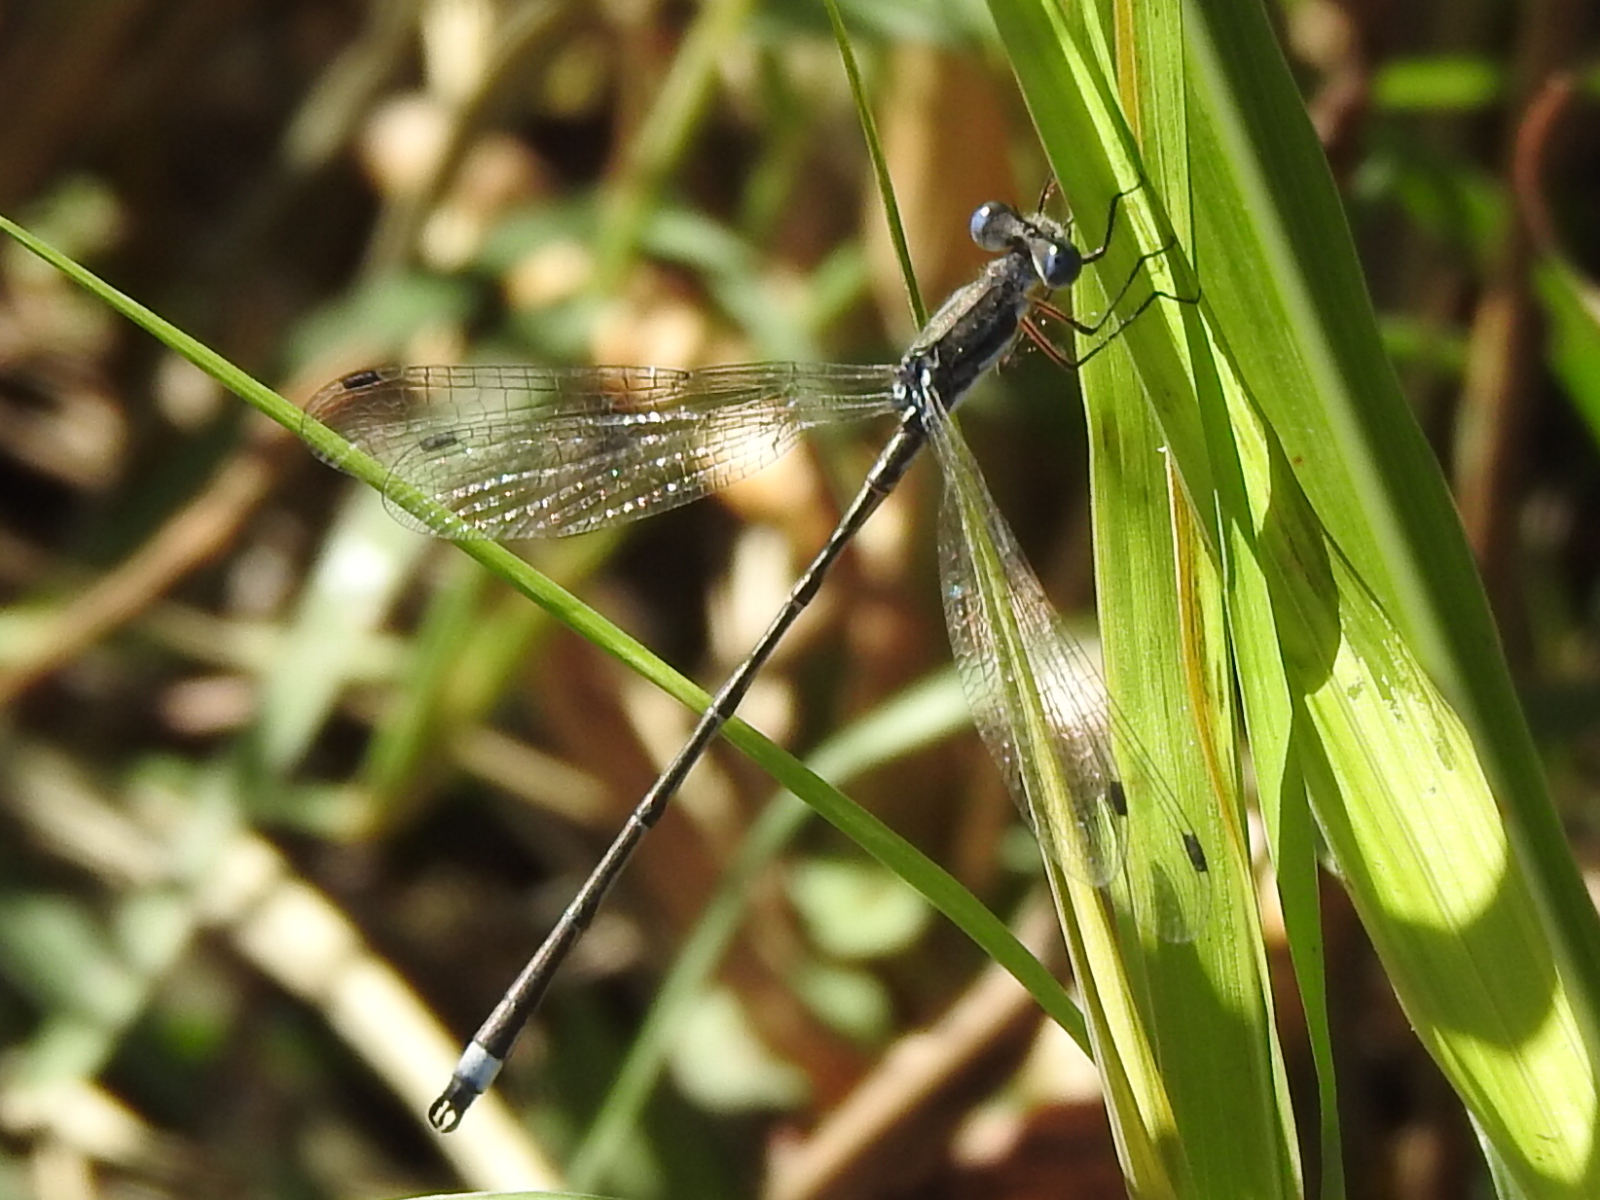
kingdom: Animalia
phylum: Arthropoda
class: Insecta
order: Odonata
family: Lestidae
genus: Lestes
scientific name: Lestes australis
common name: Southern spreadwing
